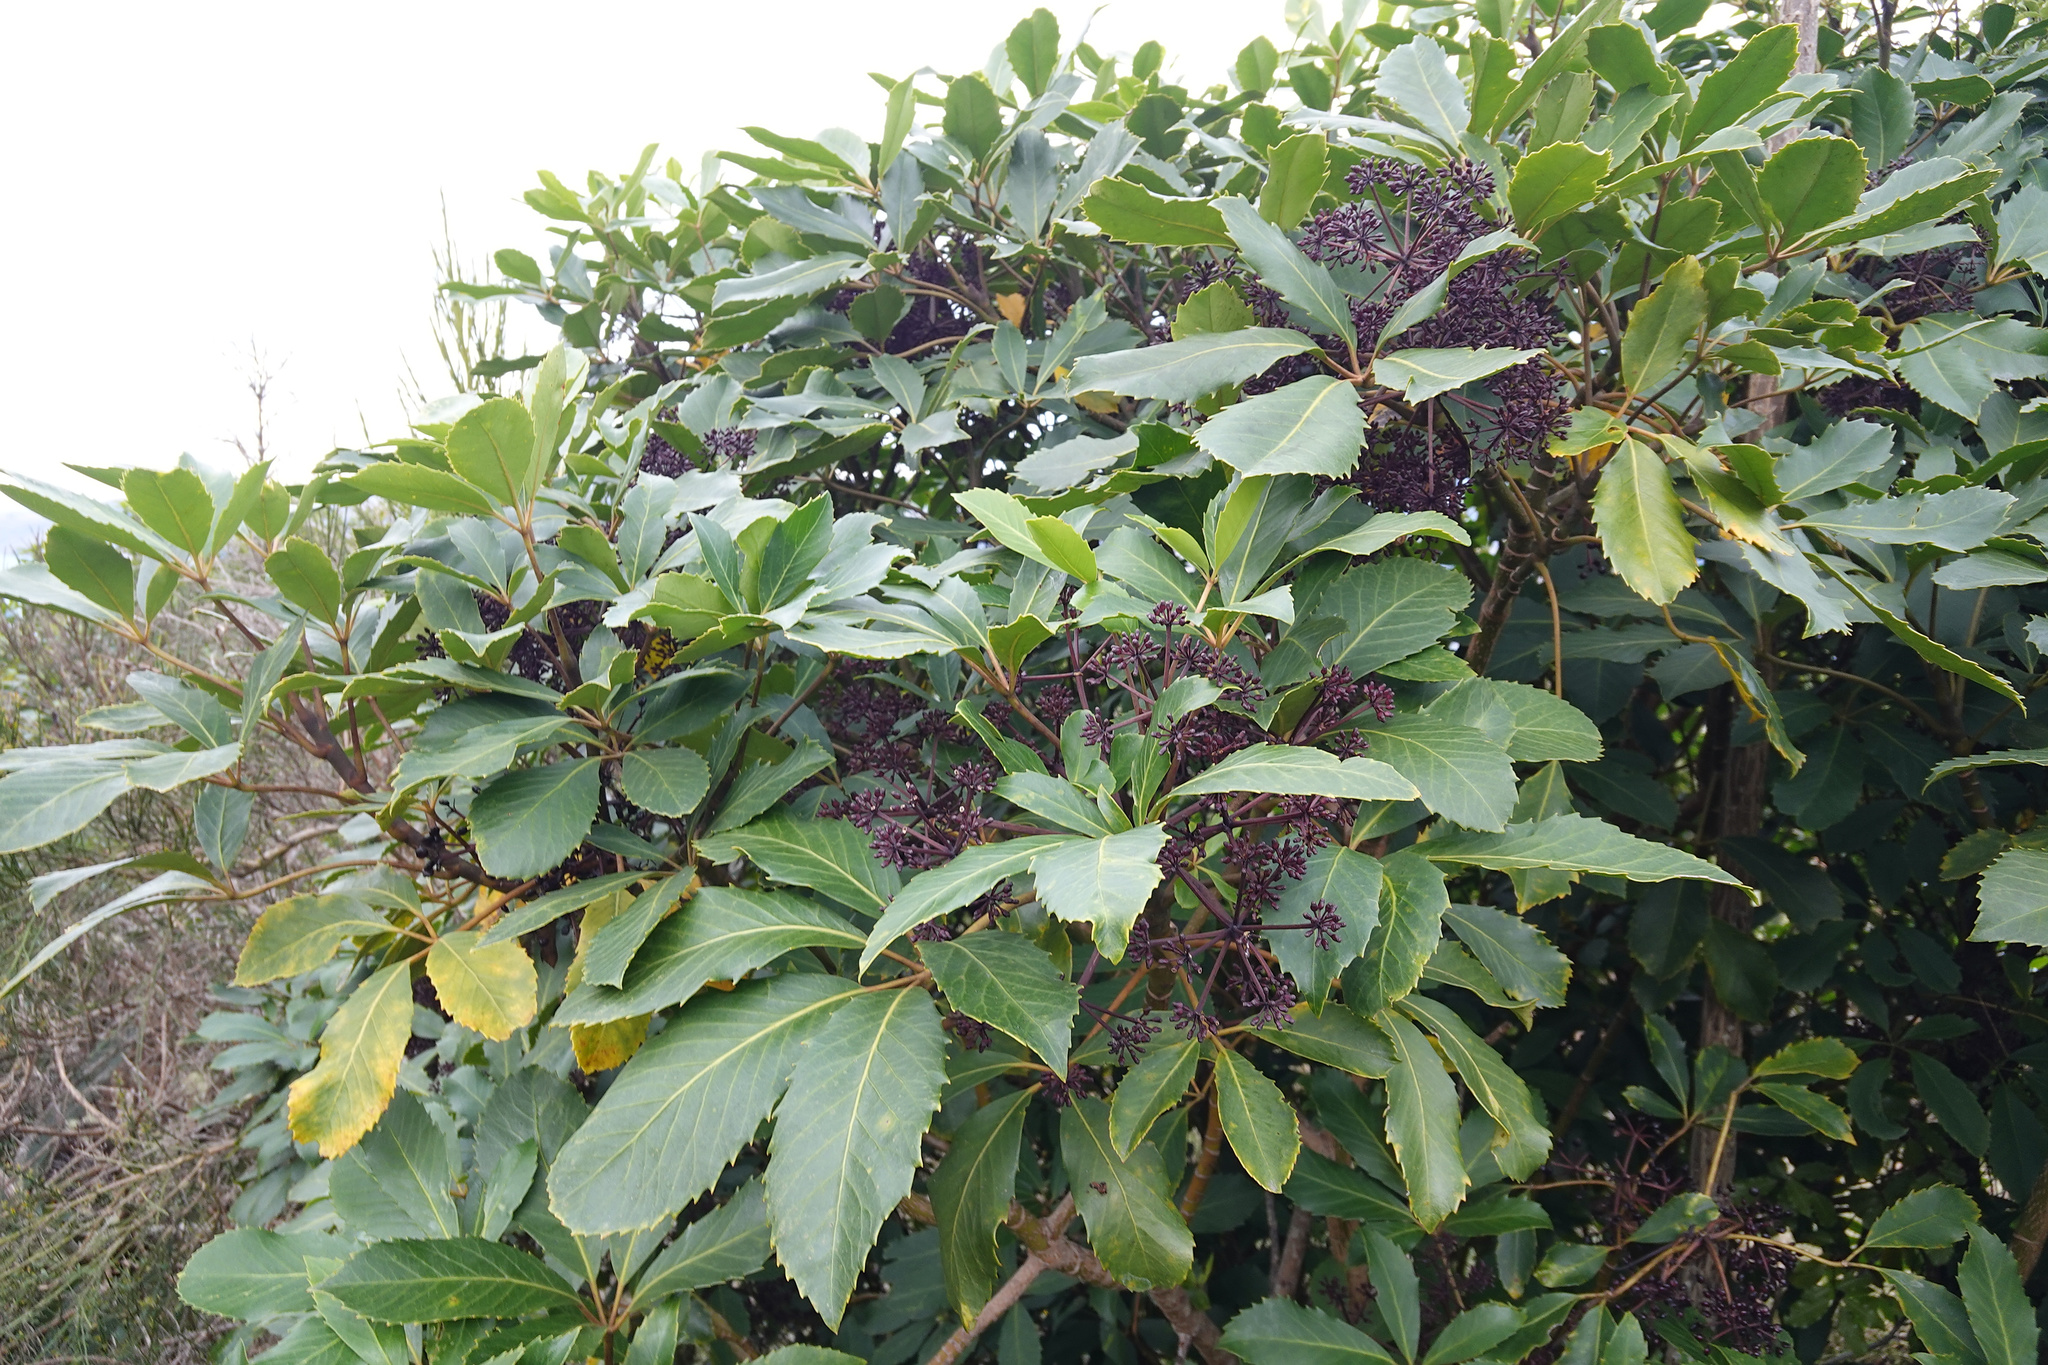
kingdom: Plantae
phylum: Tracheophyta
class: Magnoliopsida
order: Apiales
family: Araliaceae
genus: Neopanax
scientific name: Neopanax arboreus
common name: Five-fingers
